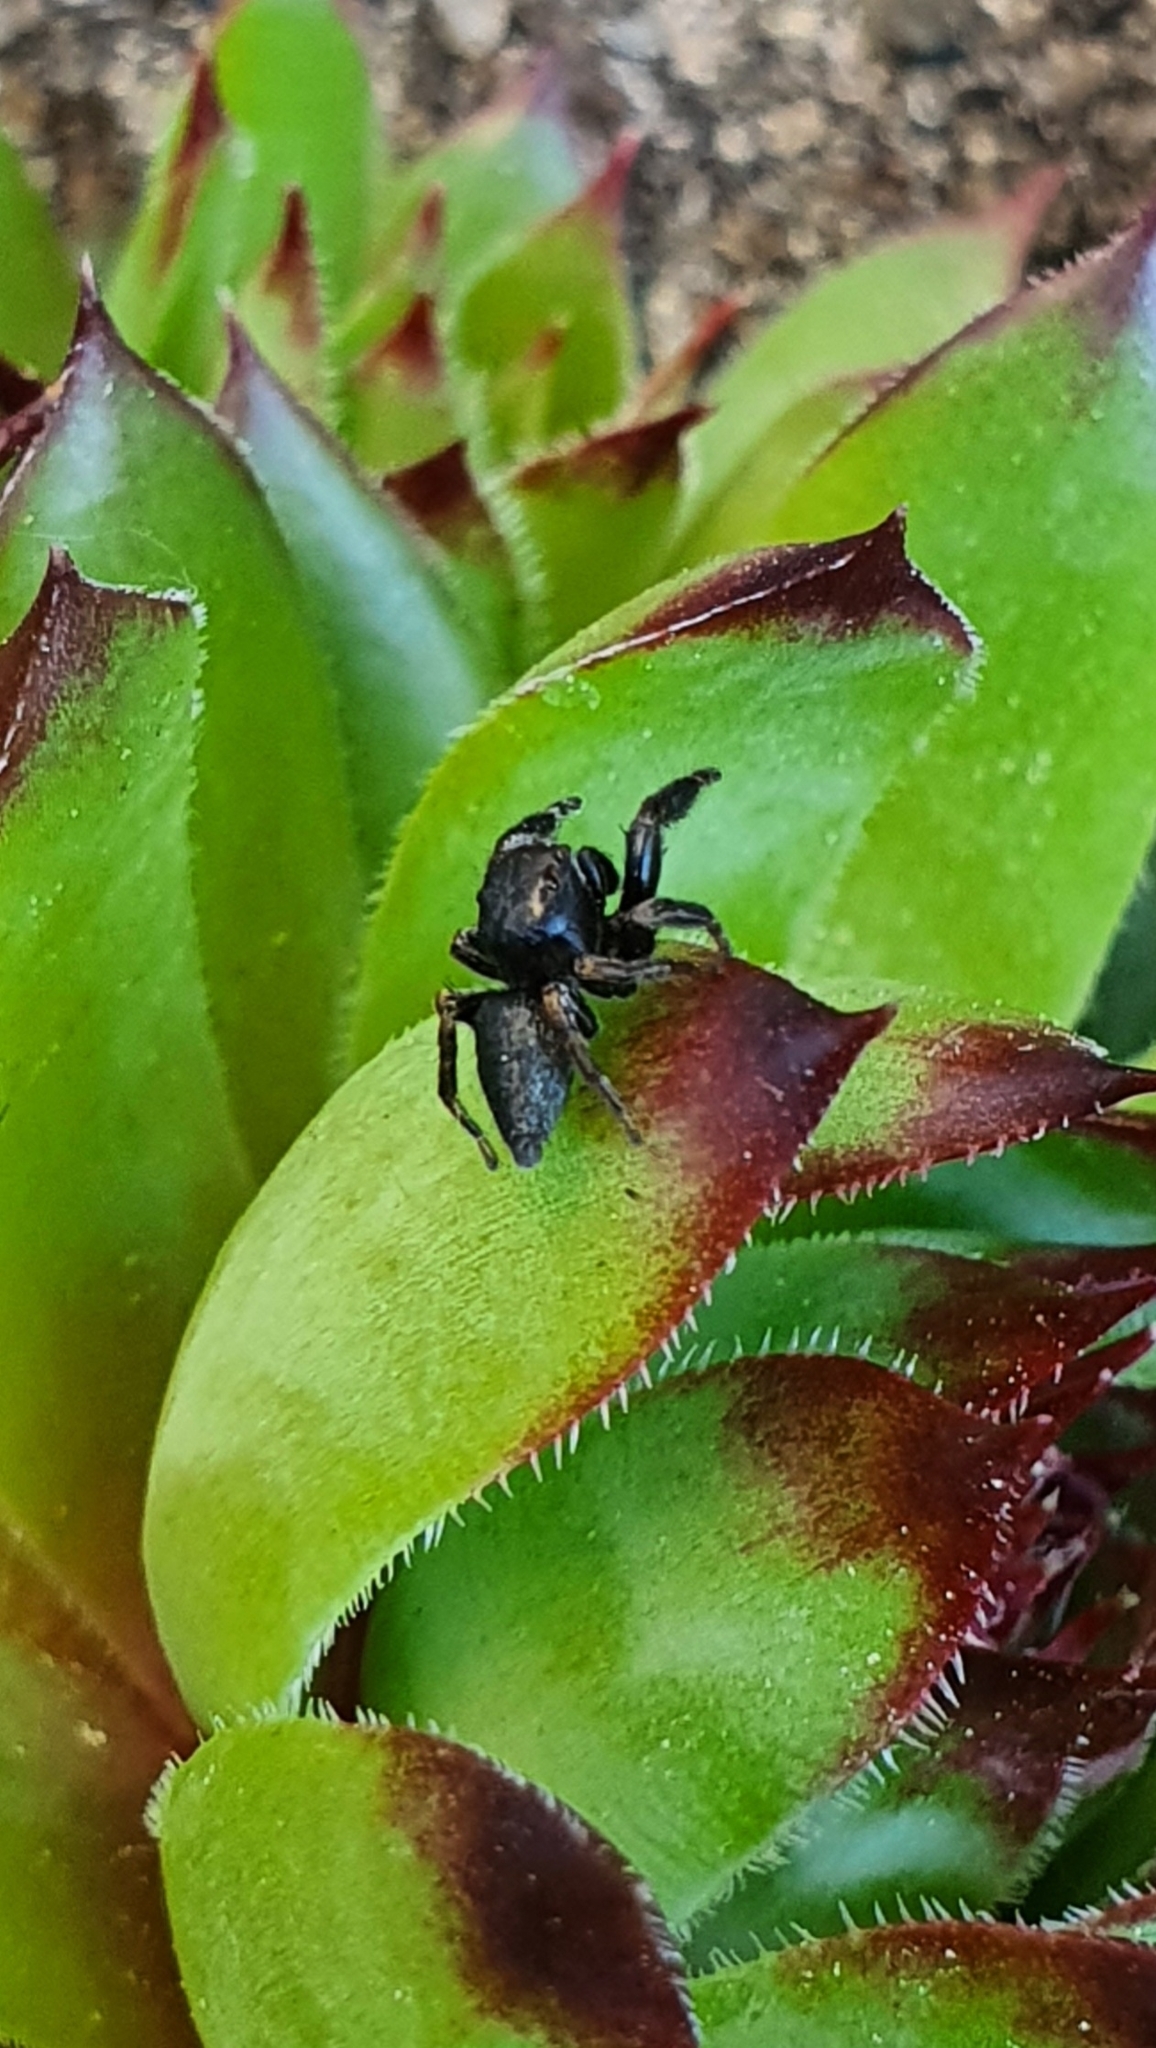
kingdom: Animalia
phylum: Arthropoda
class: Arachnida
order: Araneae
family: Salticidae
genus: Evarcha
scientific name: Evarcha arcuata
